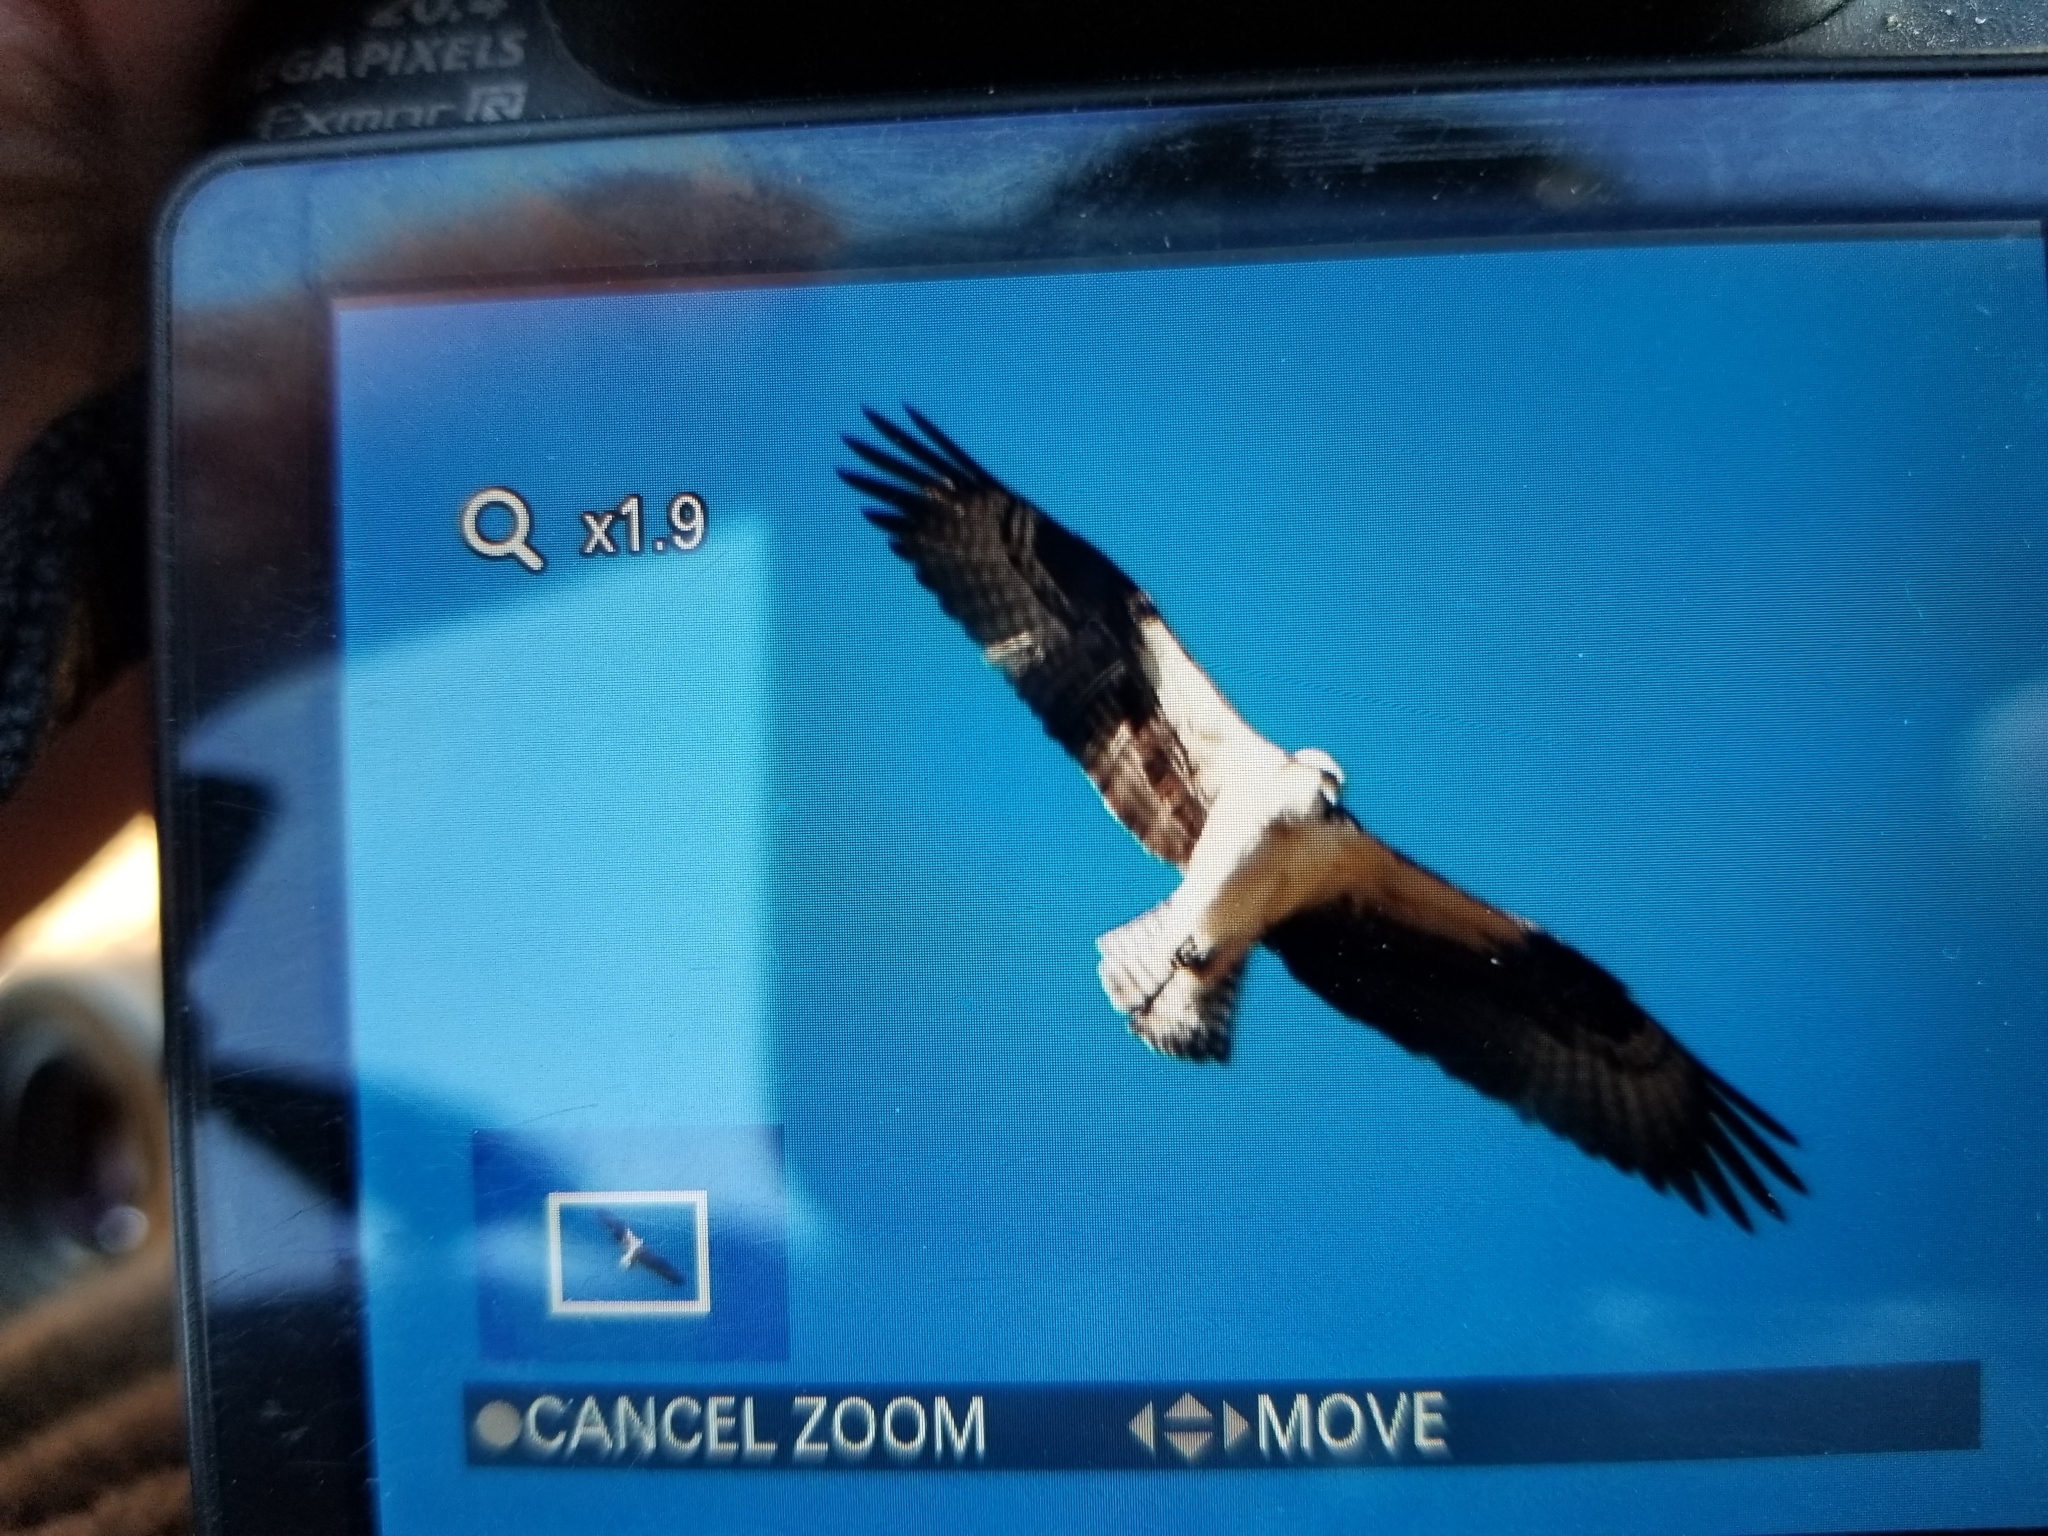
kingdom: Animalia
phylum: Chordata
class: Aves
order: Accipitriformes
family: Pandionidae
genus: Pandion
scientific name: Pandion haliaetus
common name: Osprey
